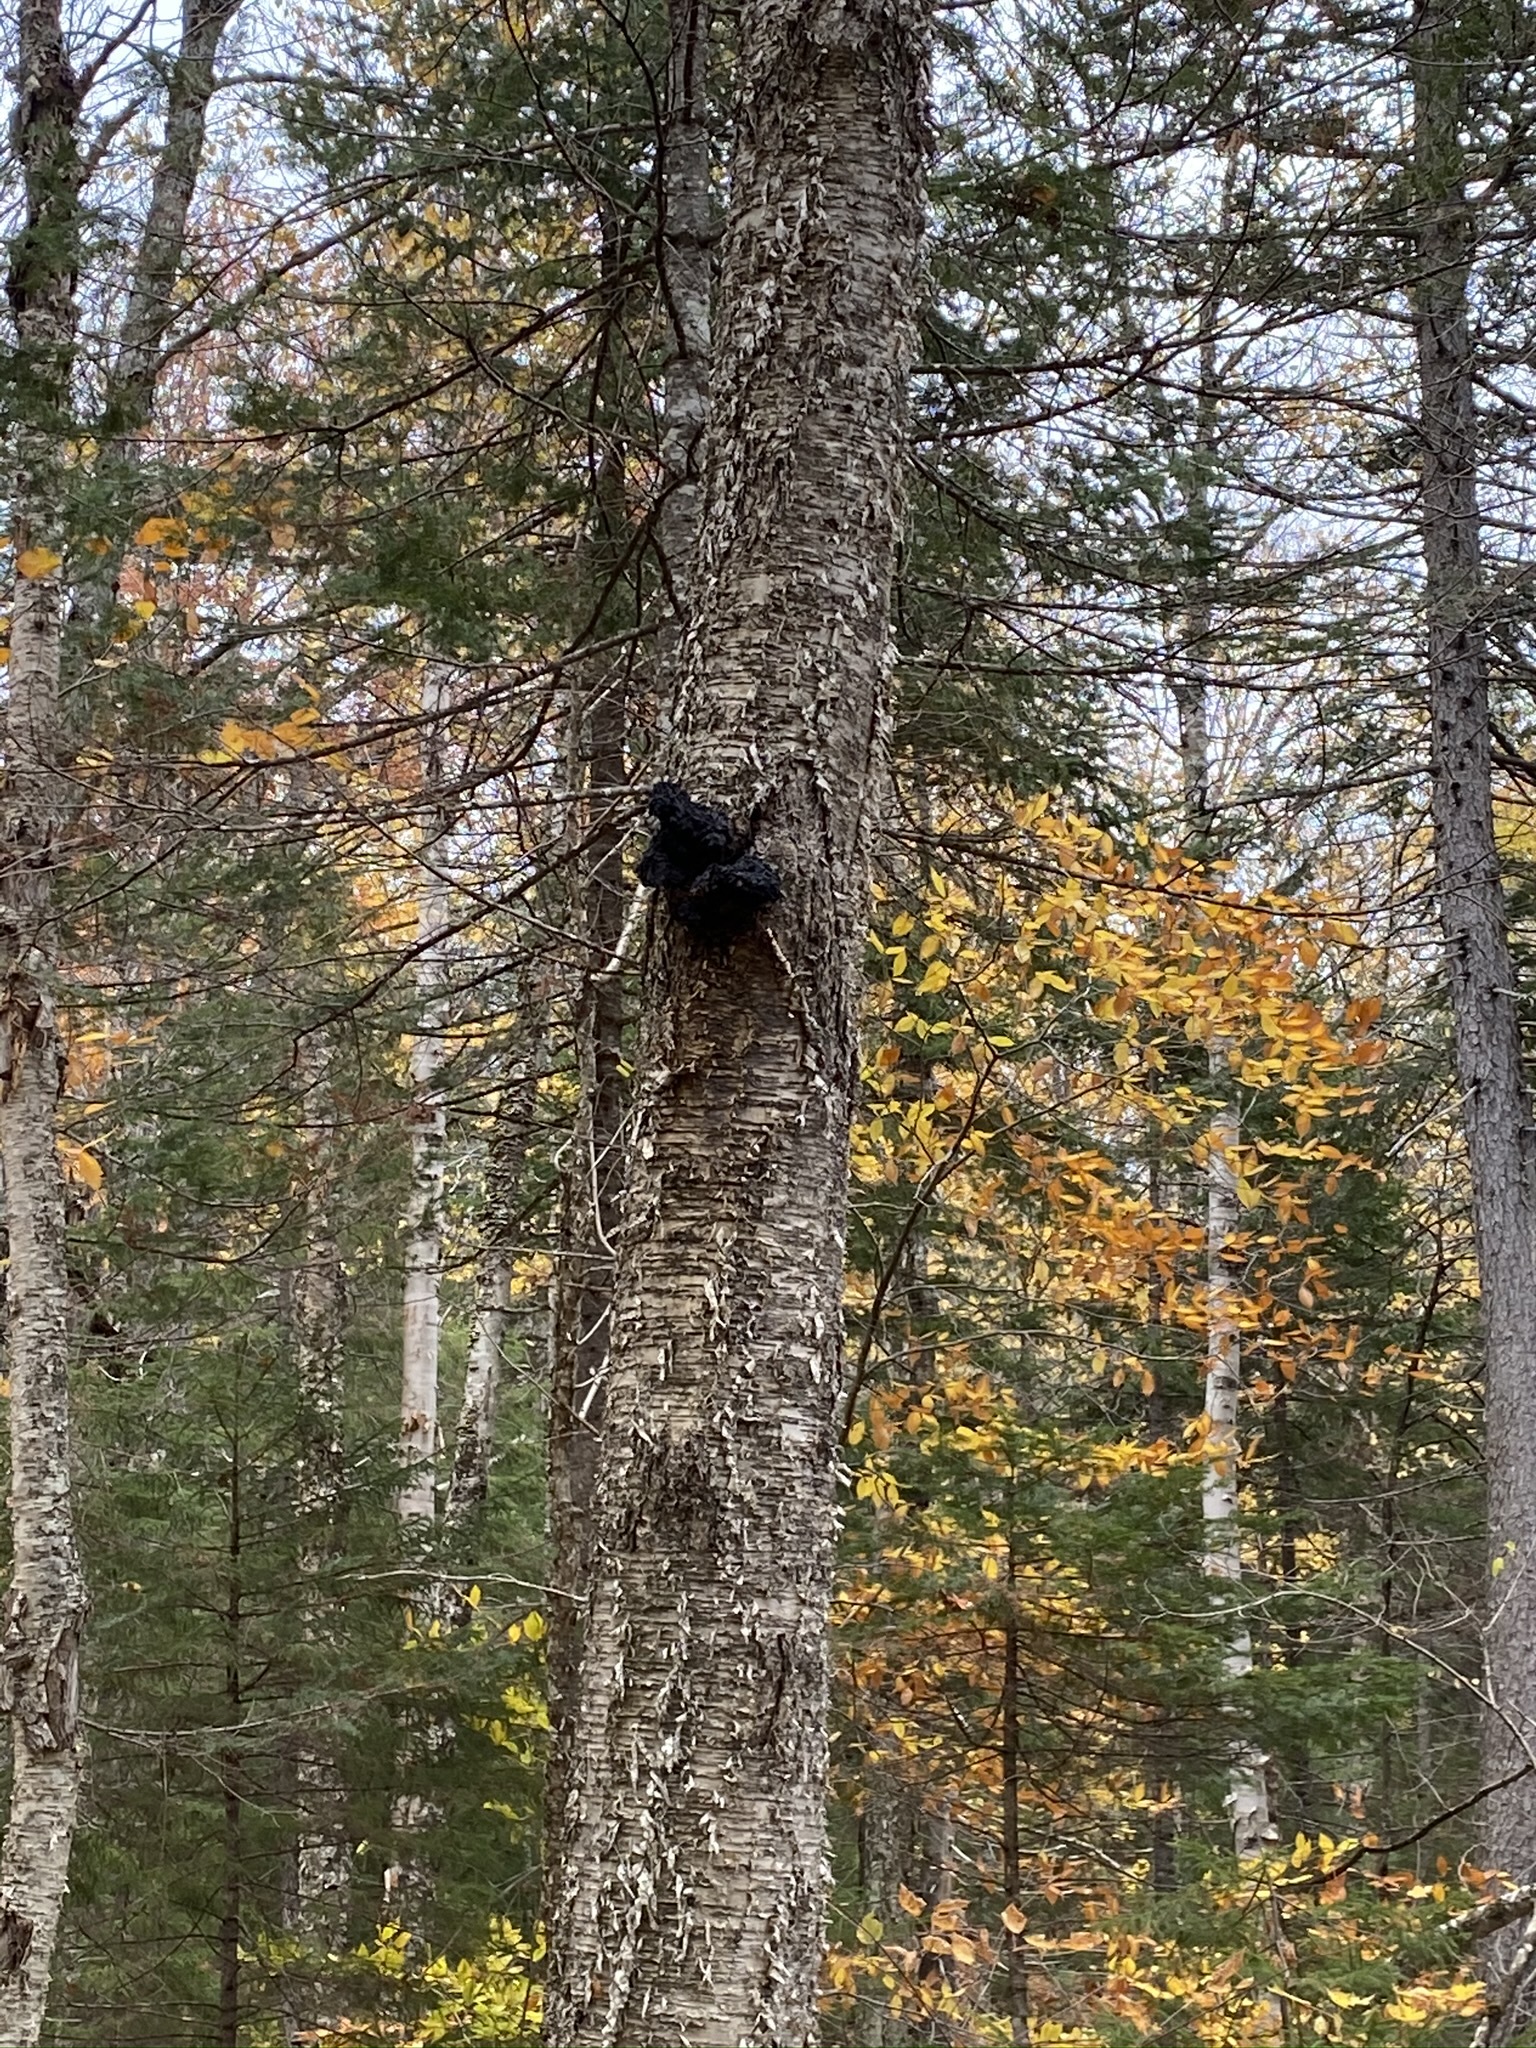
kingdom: Fungi
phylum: Basidiomycota
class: Agaricomycetes
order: Hymenochaetales
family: Hymenochaetaceae
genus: Inonotus
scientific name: Inonotus obliquus
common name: Chaga
